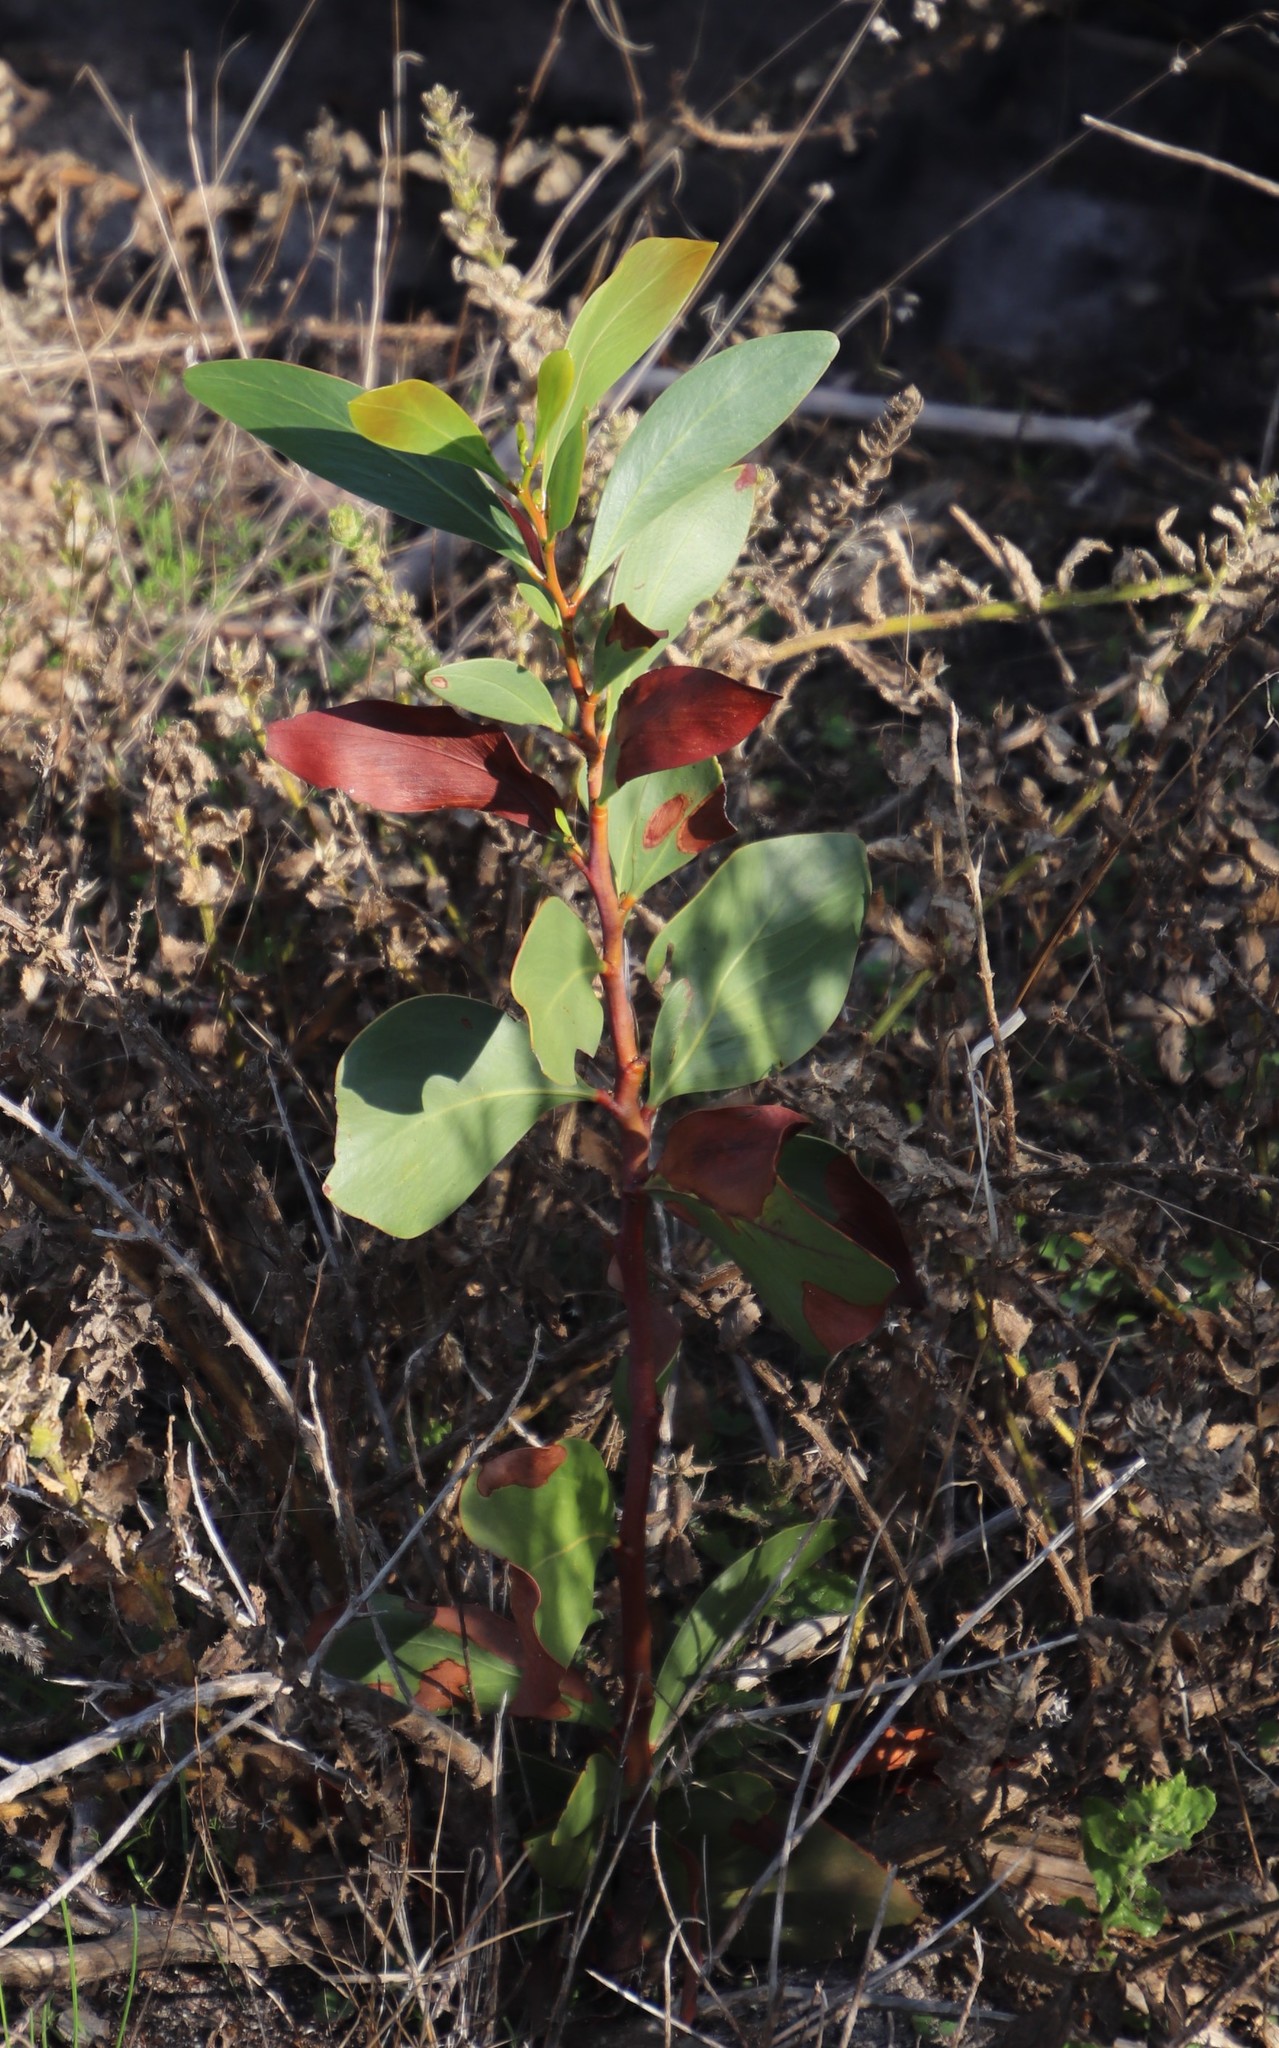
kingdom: Plantae
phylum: Tracheophyta
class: Magnoliopsida
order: Fabales
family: Fabaceae
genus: Acacia
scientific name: Acacia pycnantha
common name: Golden wattle
